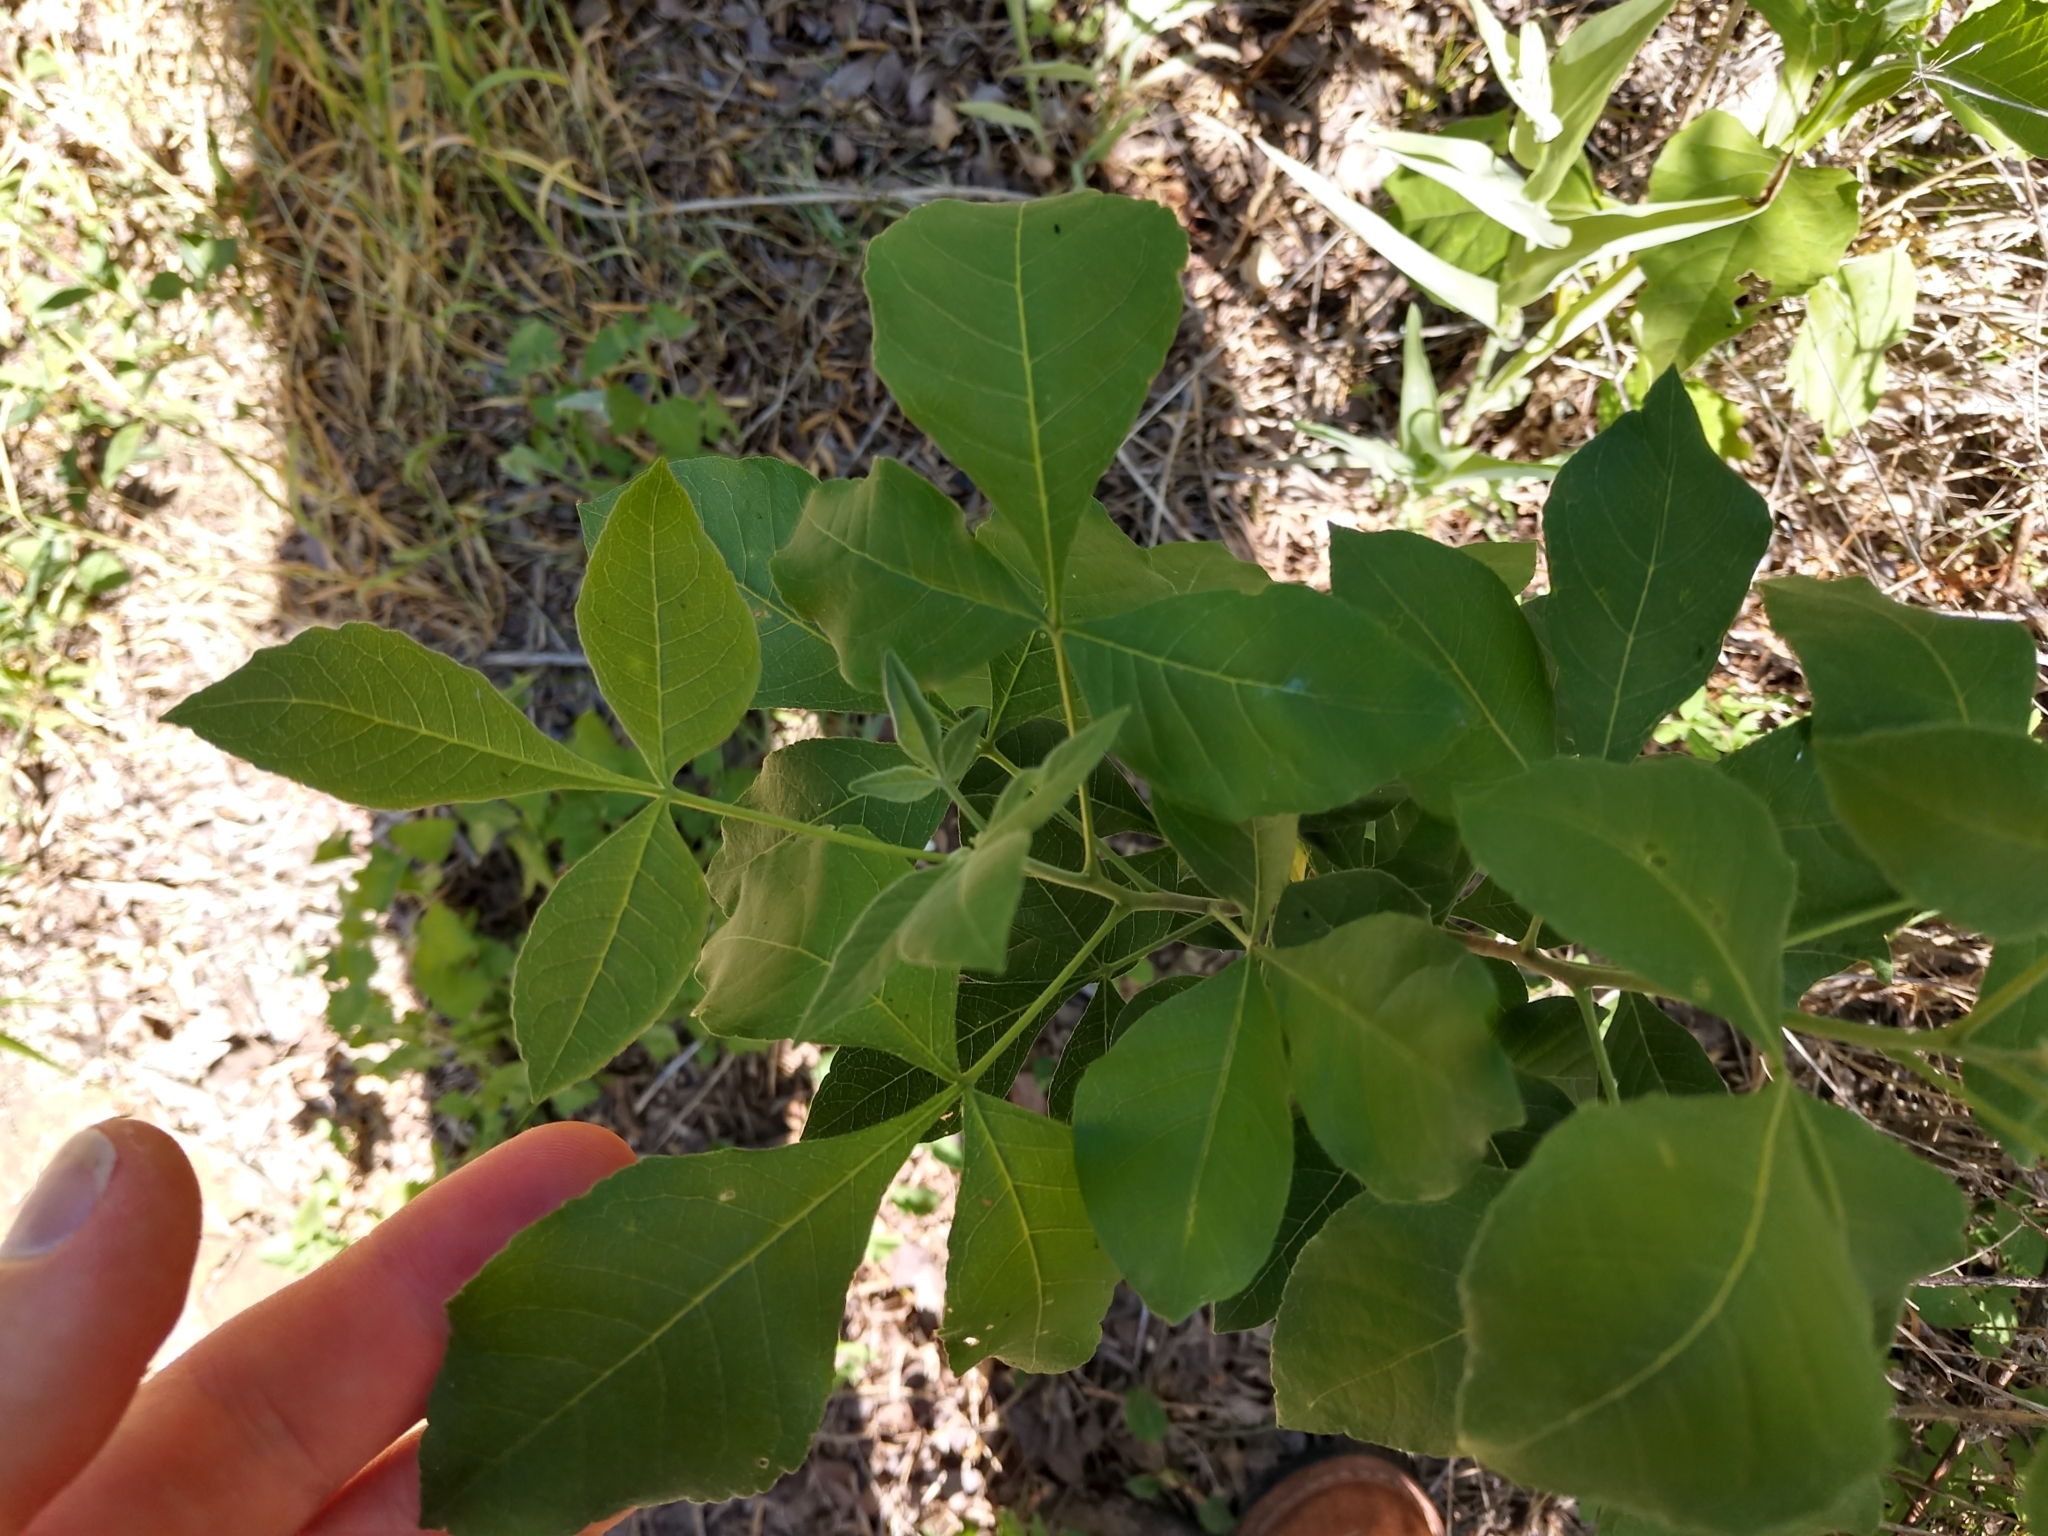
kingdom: Plantae
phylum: Tracheophyta
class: Magnoliopsida
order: Sapindales
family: Rutaceae
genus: Ptelea
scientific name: Ptelea trifoliata
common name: Common hop-tree
